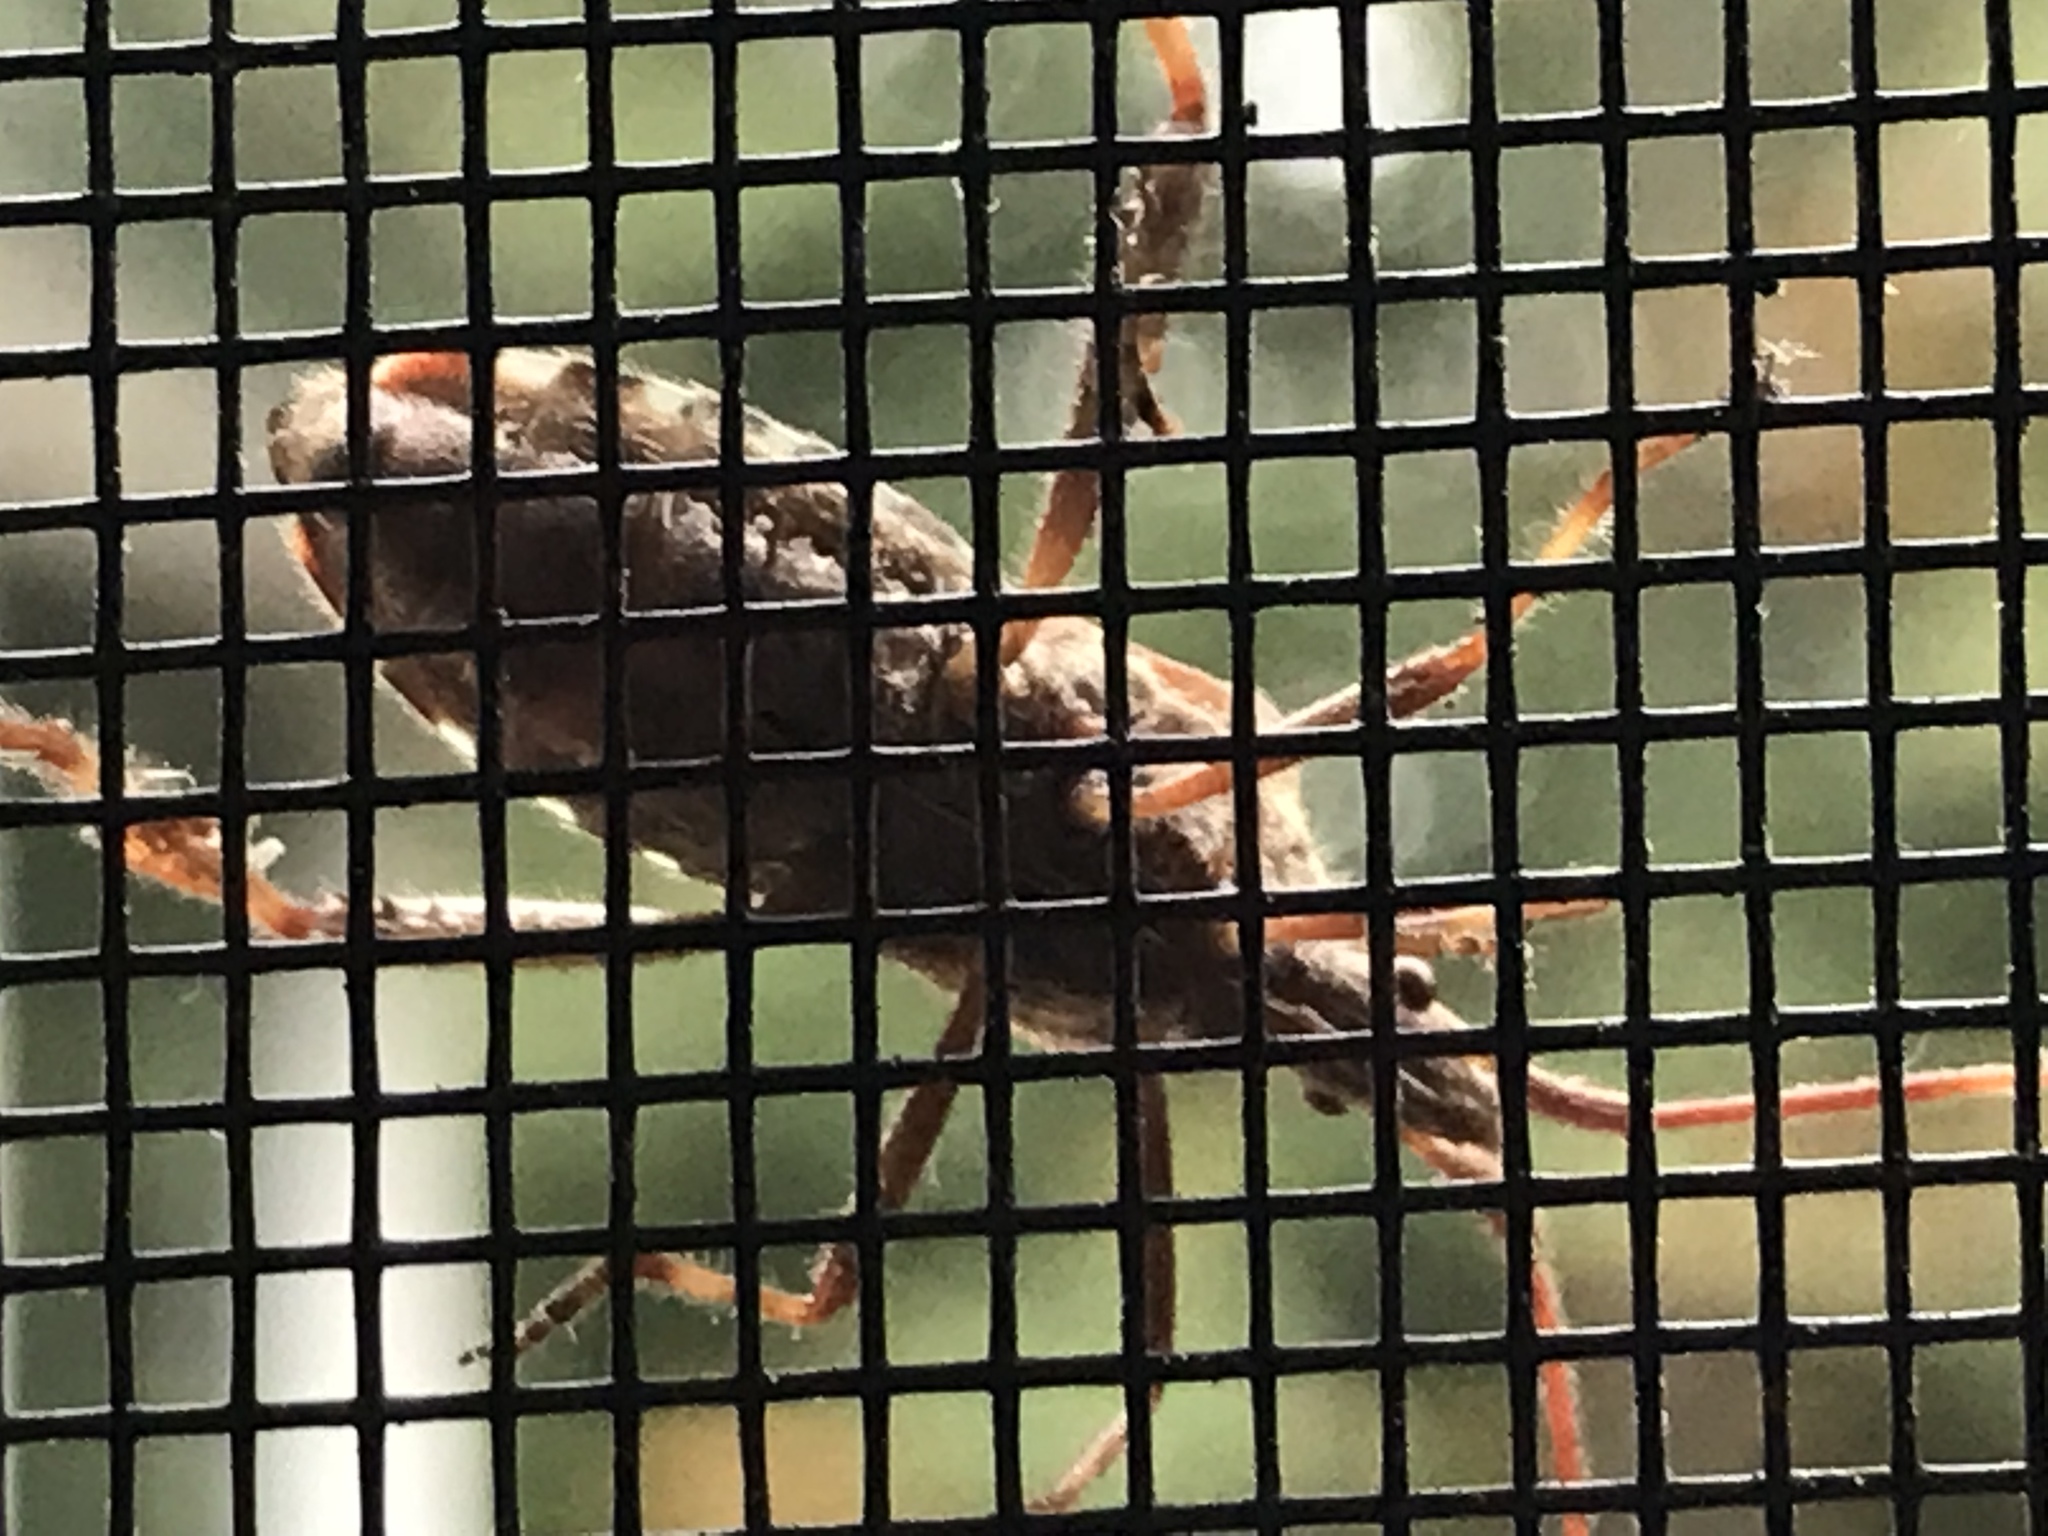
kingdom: Animalia
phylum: Arthropoda
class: Insecta
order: Hemiptera
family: Coreidae
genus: Leptoglossus
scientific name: Leptoglossus occidentalis
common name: Western conifer-seed bug
